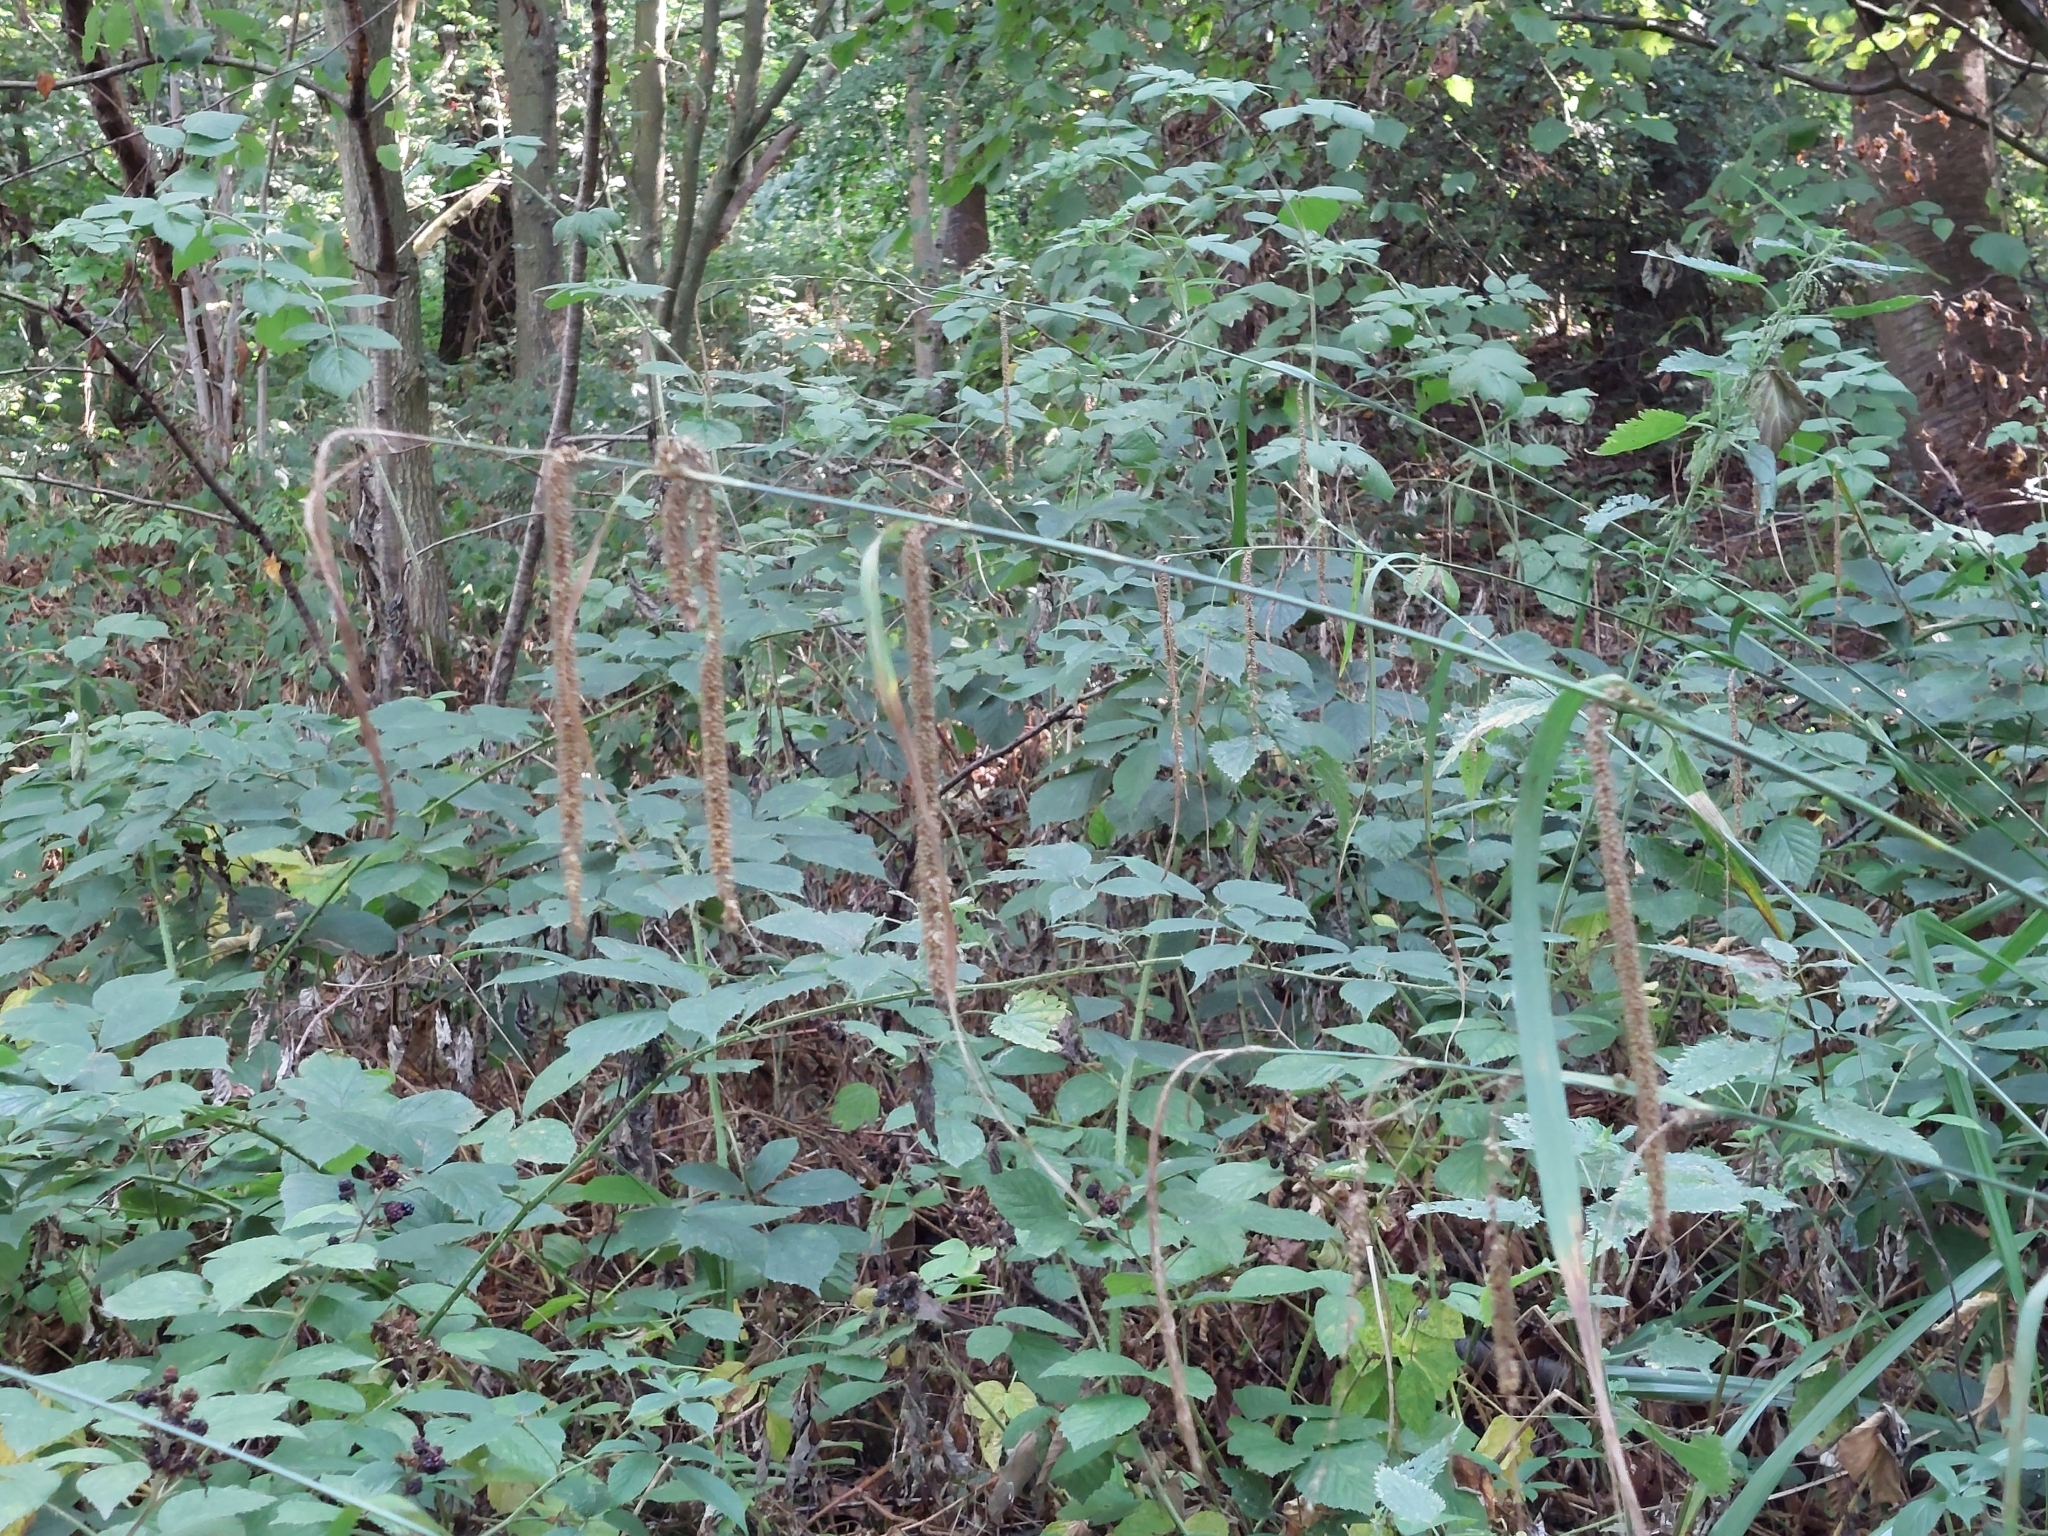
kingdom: Plantae
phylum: Tracheophyta
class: Liliopsida
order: Poales
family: Cyperaceae
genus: Carex
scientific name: Carex pendula
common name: Pendulous sedge
